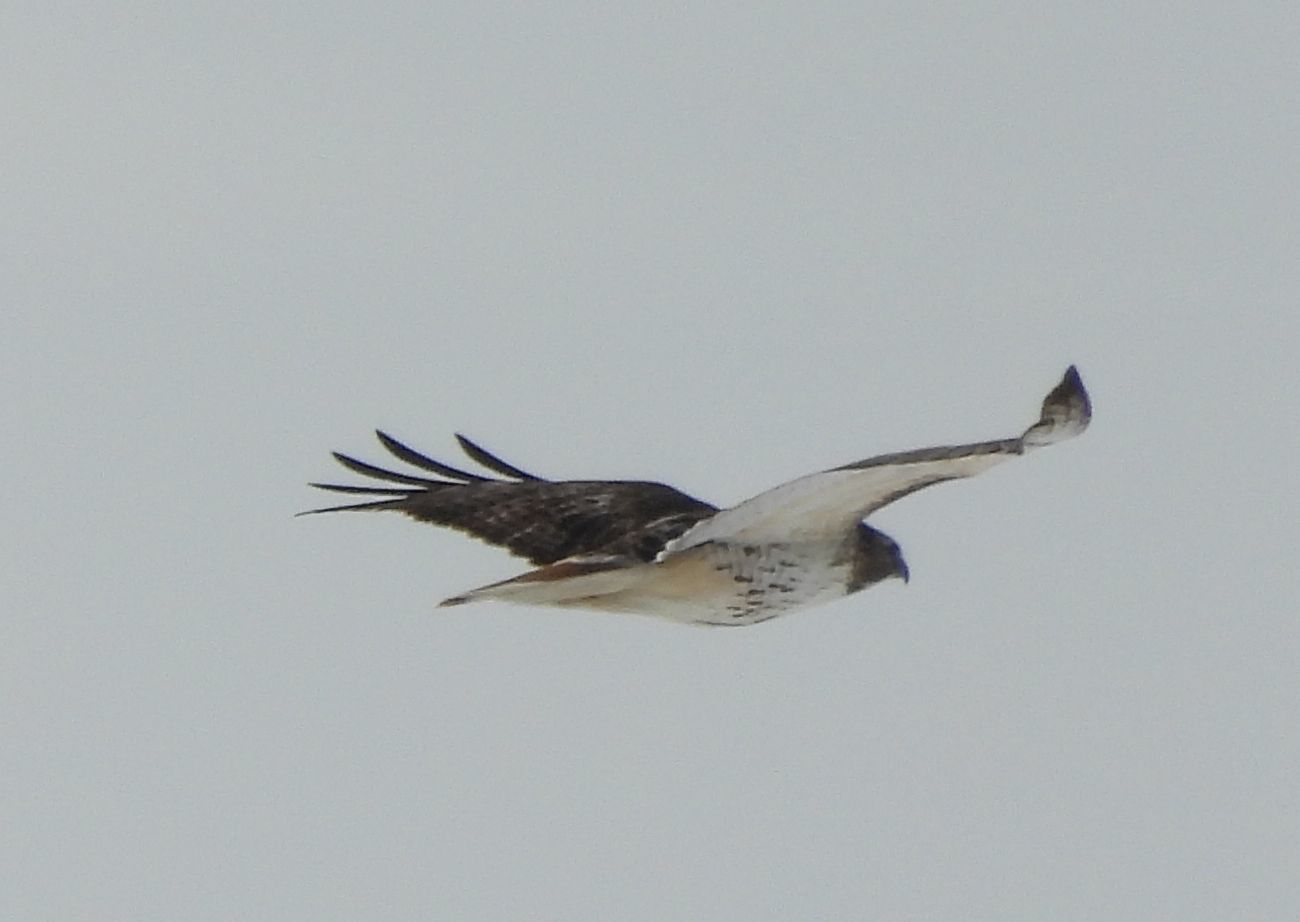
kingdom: Animalia
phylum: Chordata
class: Aves
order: Accipitriformes
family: Accipitridae
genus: Buteo
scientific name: Buteo jamaicensis
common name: Red-tailed hawk
